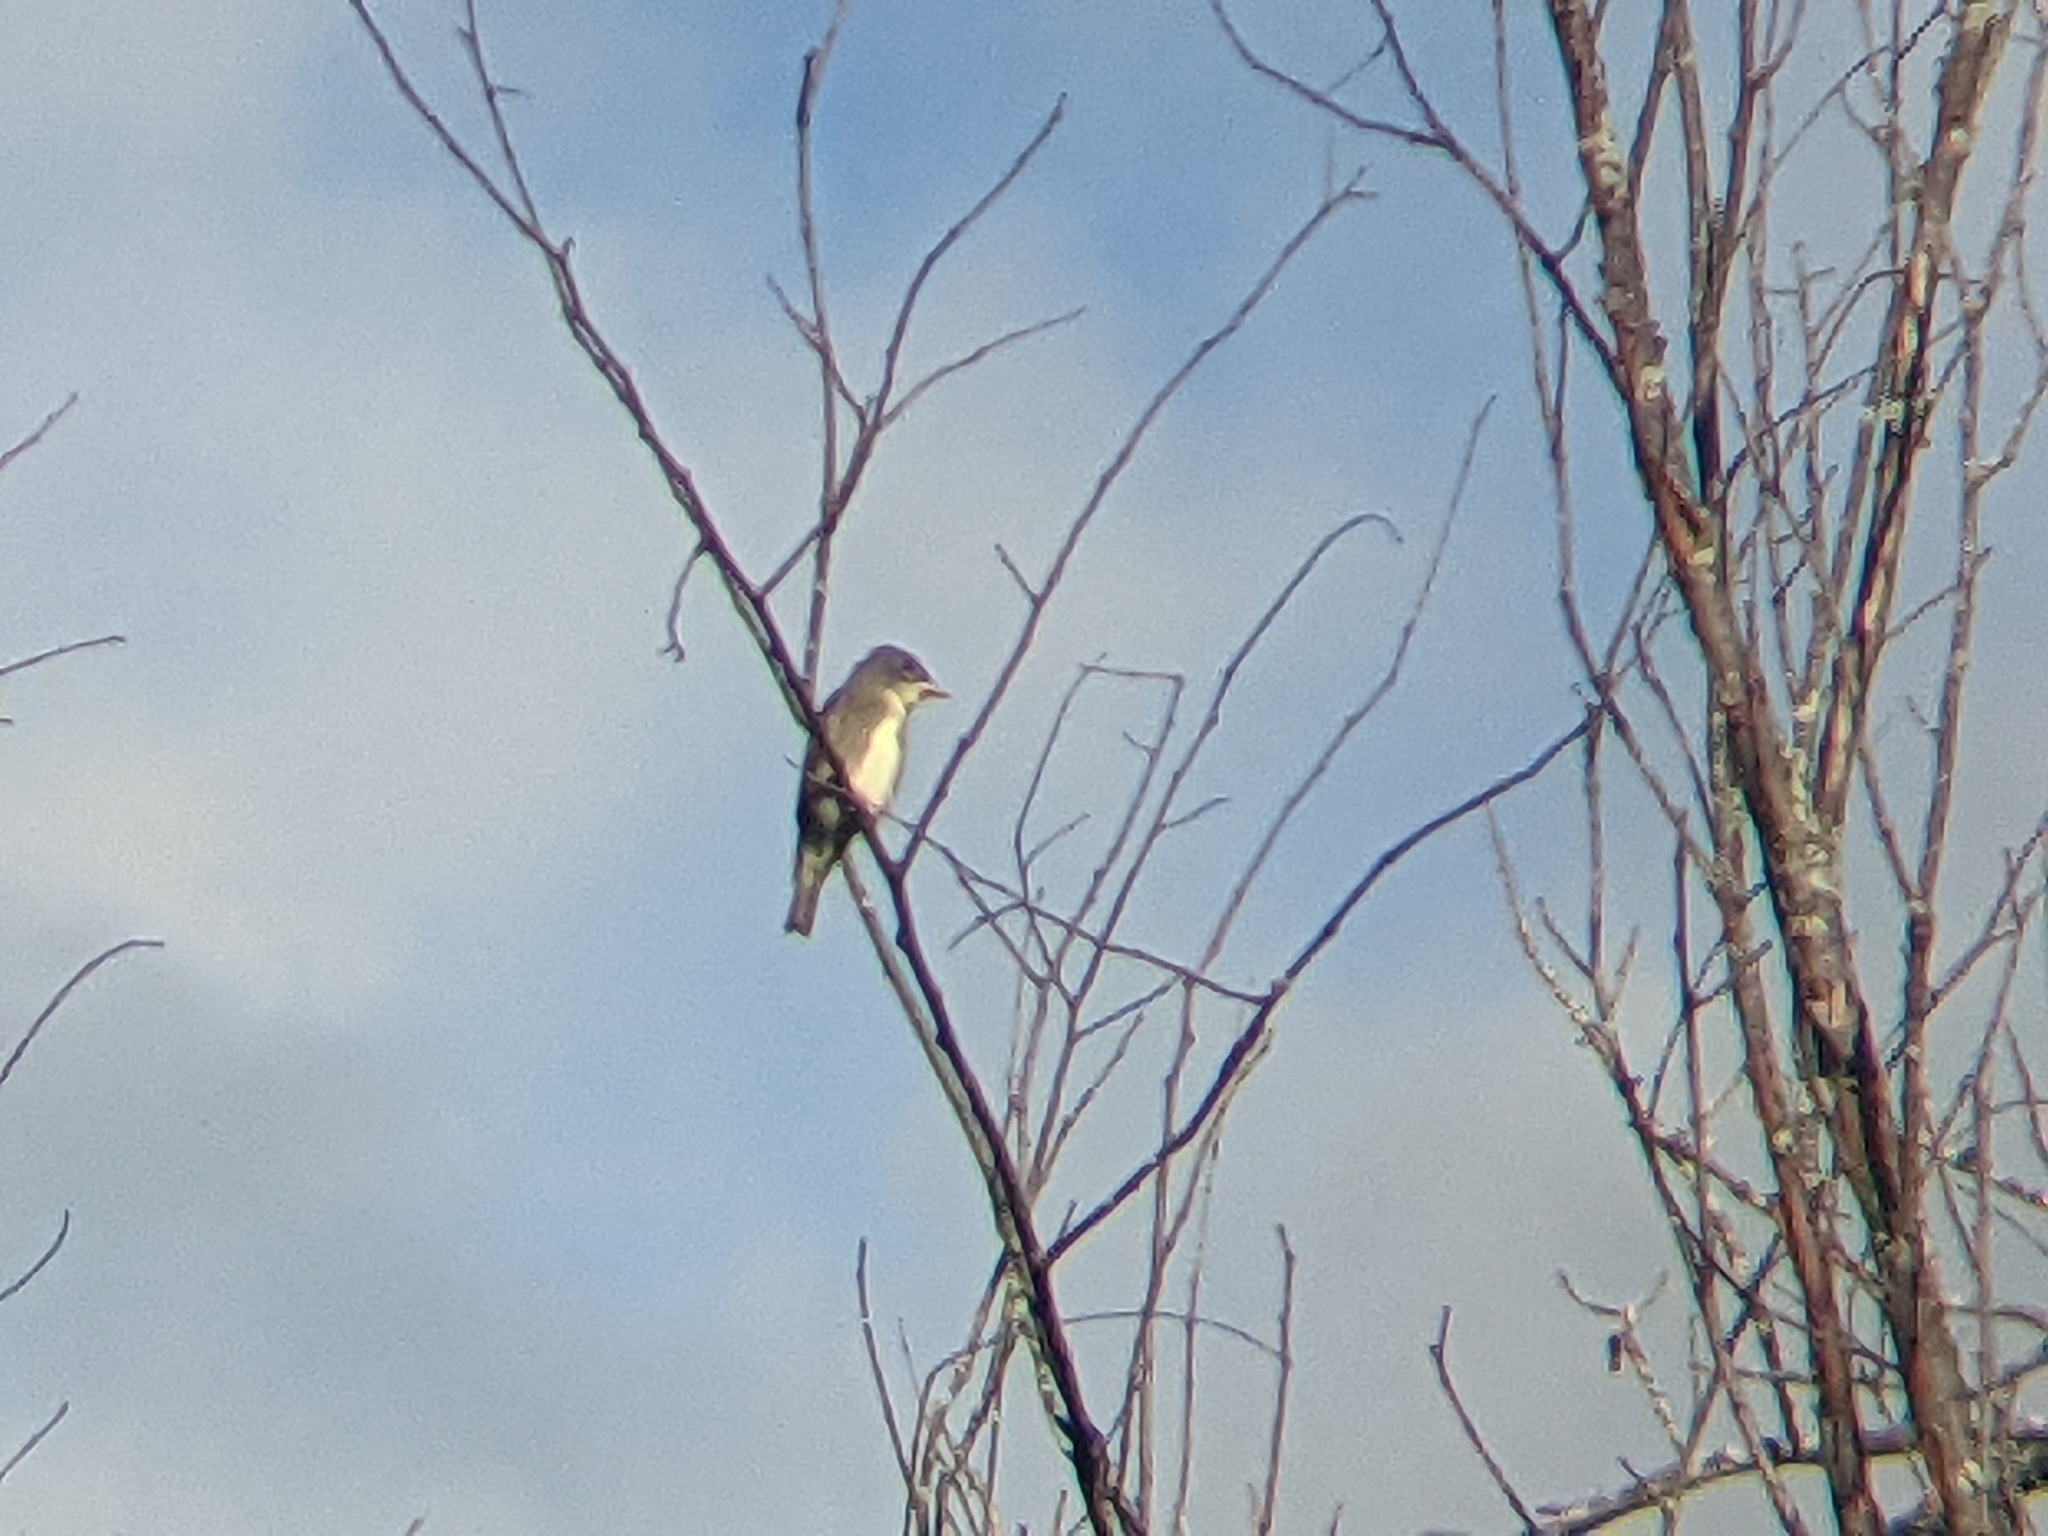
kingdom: Animalia
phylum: Chordata
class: Aves
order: Passeriformes
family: Tyrannidae
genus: Contopus
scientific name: Contopus cooperi
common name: Olive-sided flycatcher
